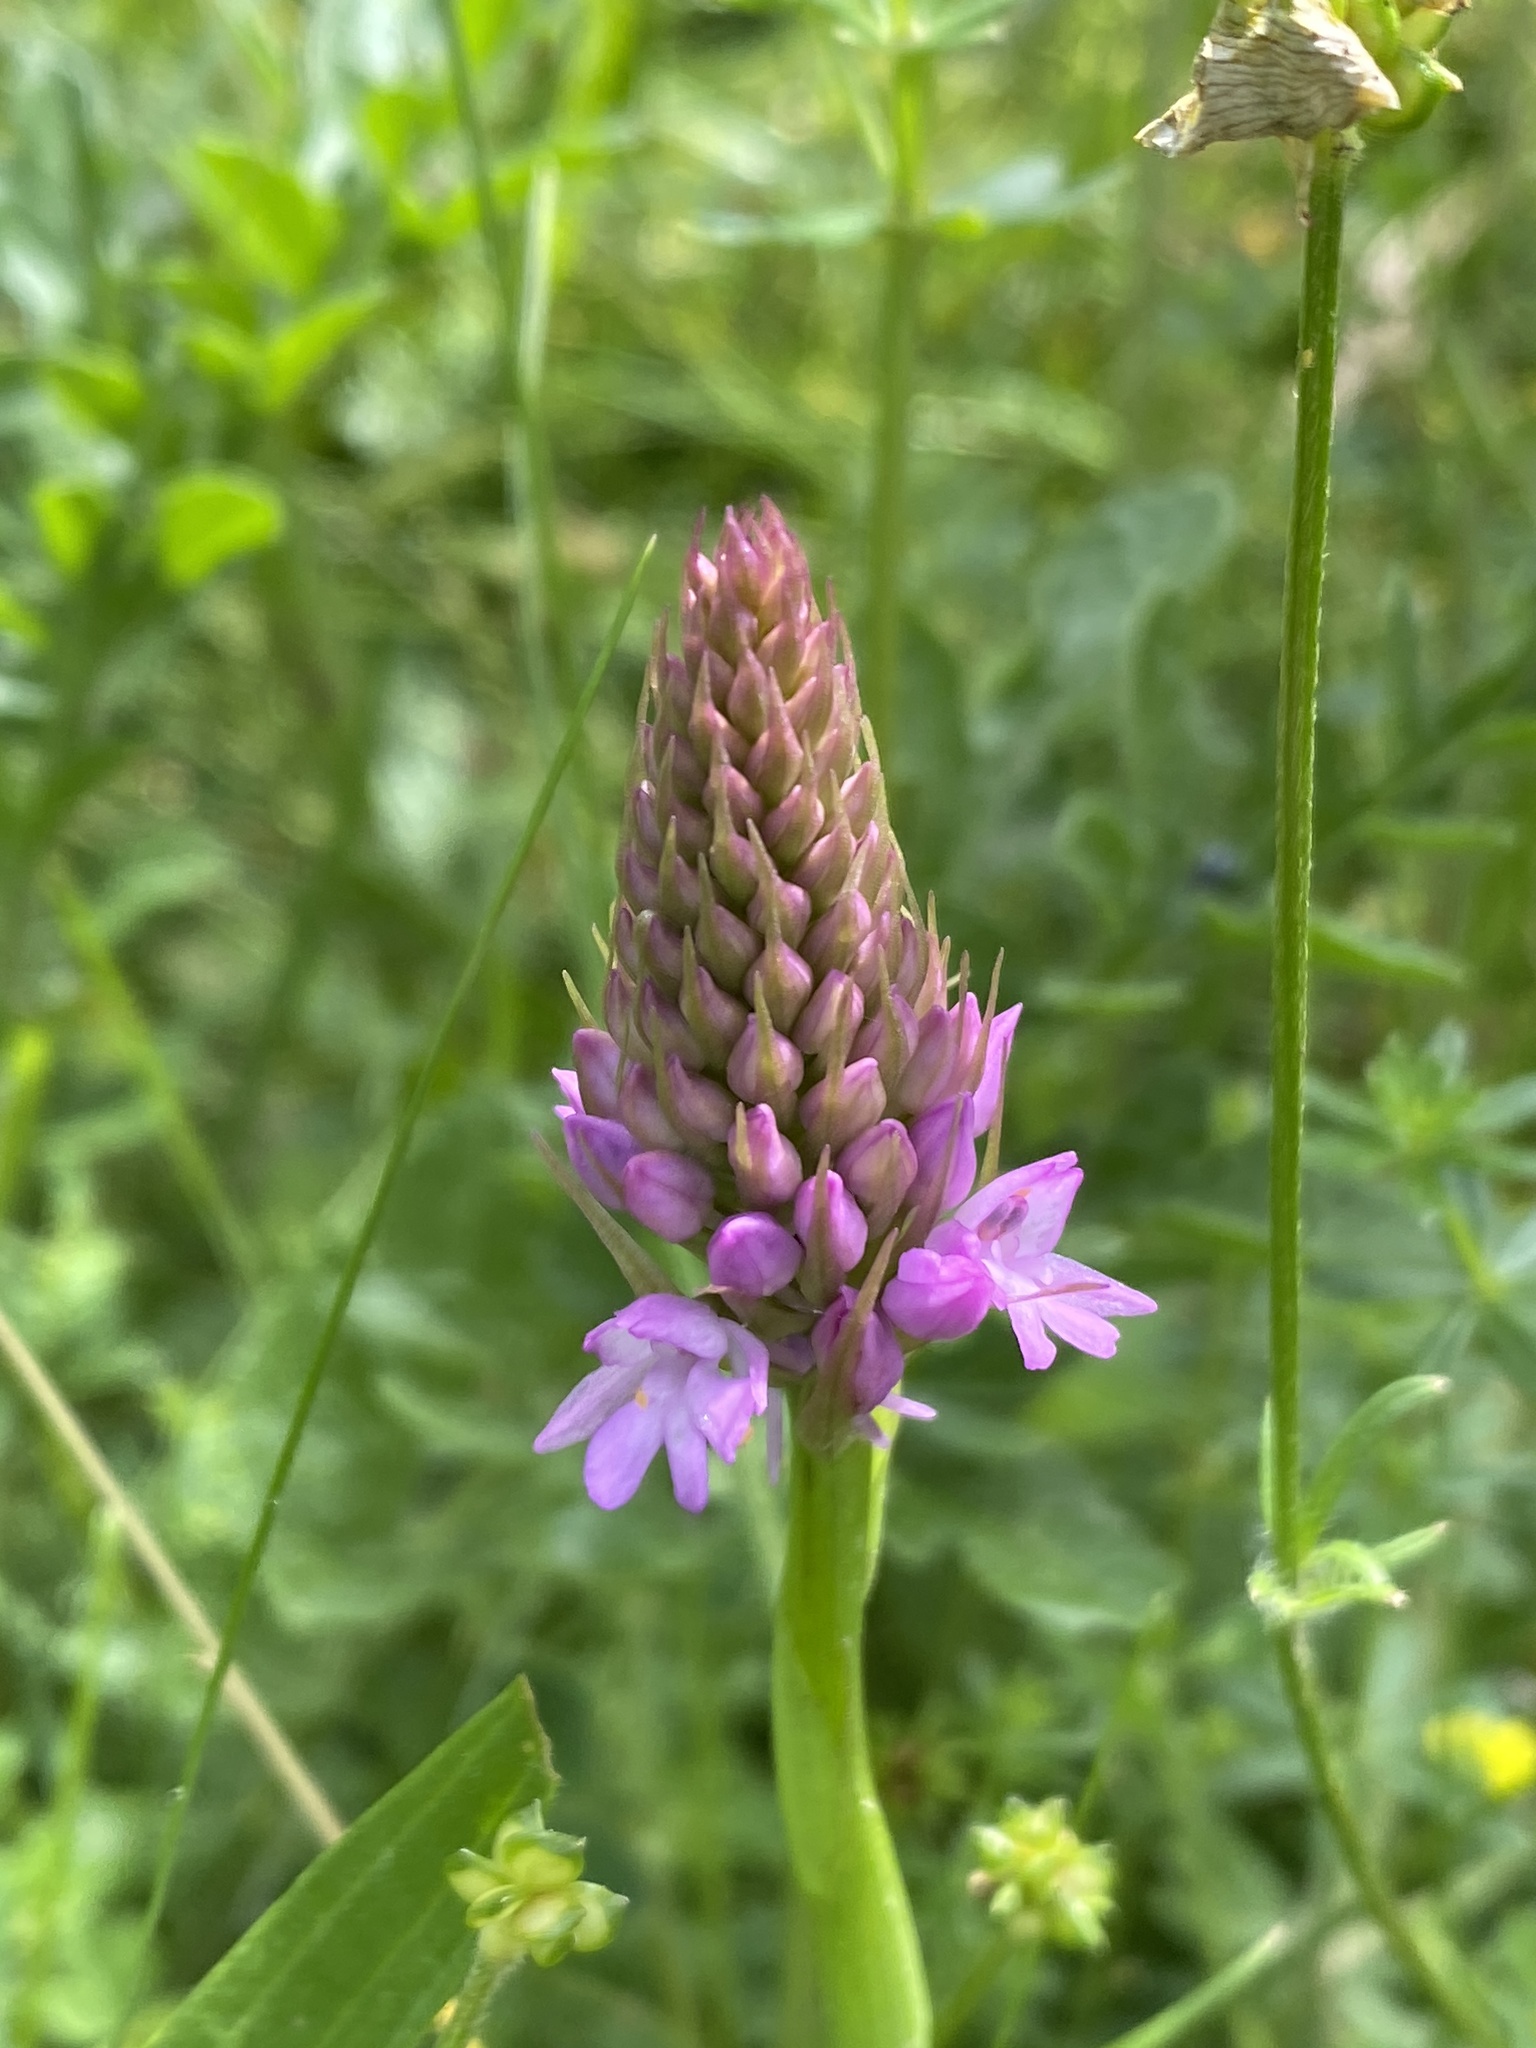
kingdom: Plantae
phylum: Tracheophyta
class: Liliopsida
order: Asparagales
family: Orchidaceae
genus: Anacamptis
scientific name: Anacamptis pyramidalis
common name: Pyramidal orchid
